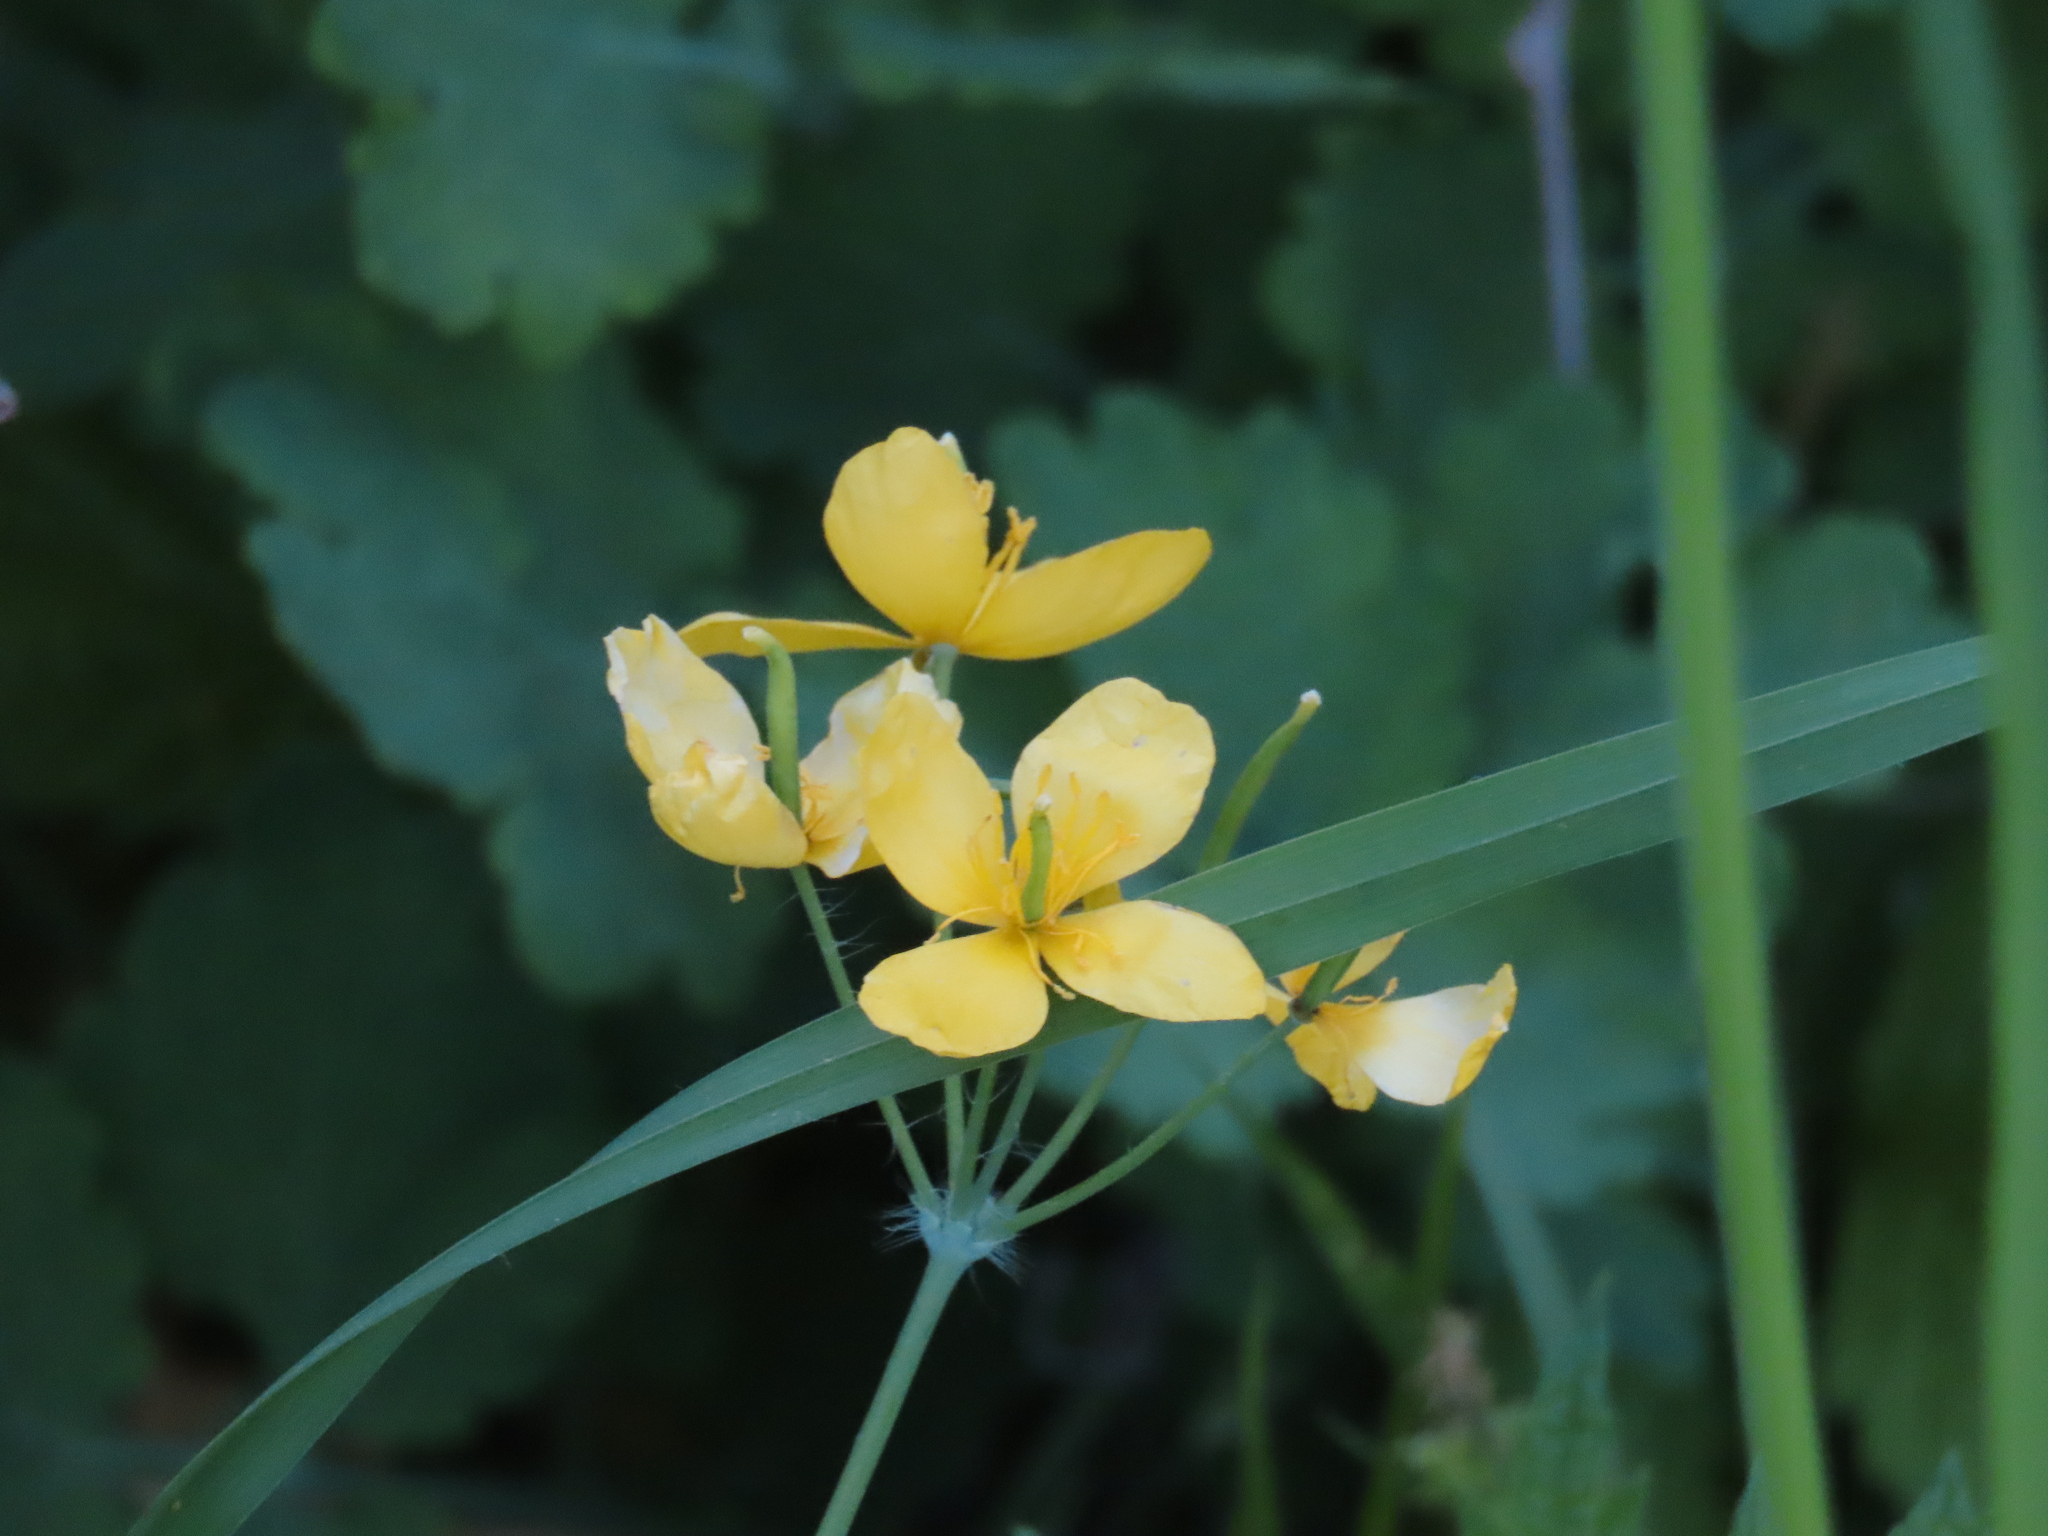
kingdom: Plantae
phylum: Tracheophyta
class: Magnoliopsida
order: Ranunculales
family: Papaveraceae
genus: Chelidonium
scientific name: Chelidonium majus
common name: Greater celandine
